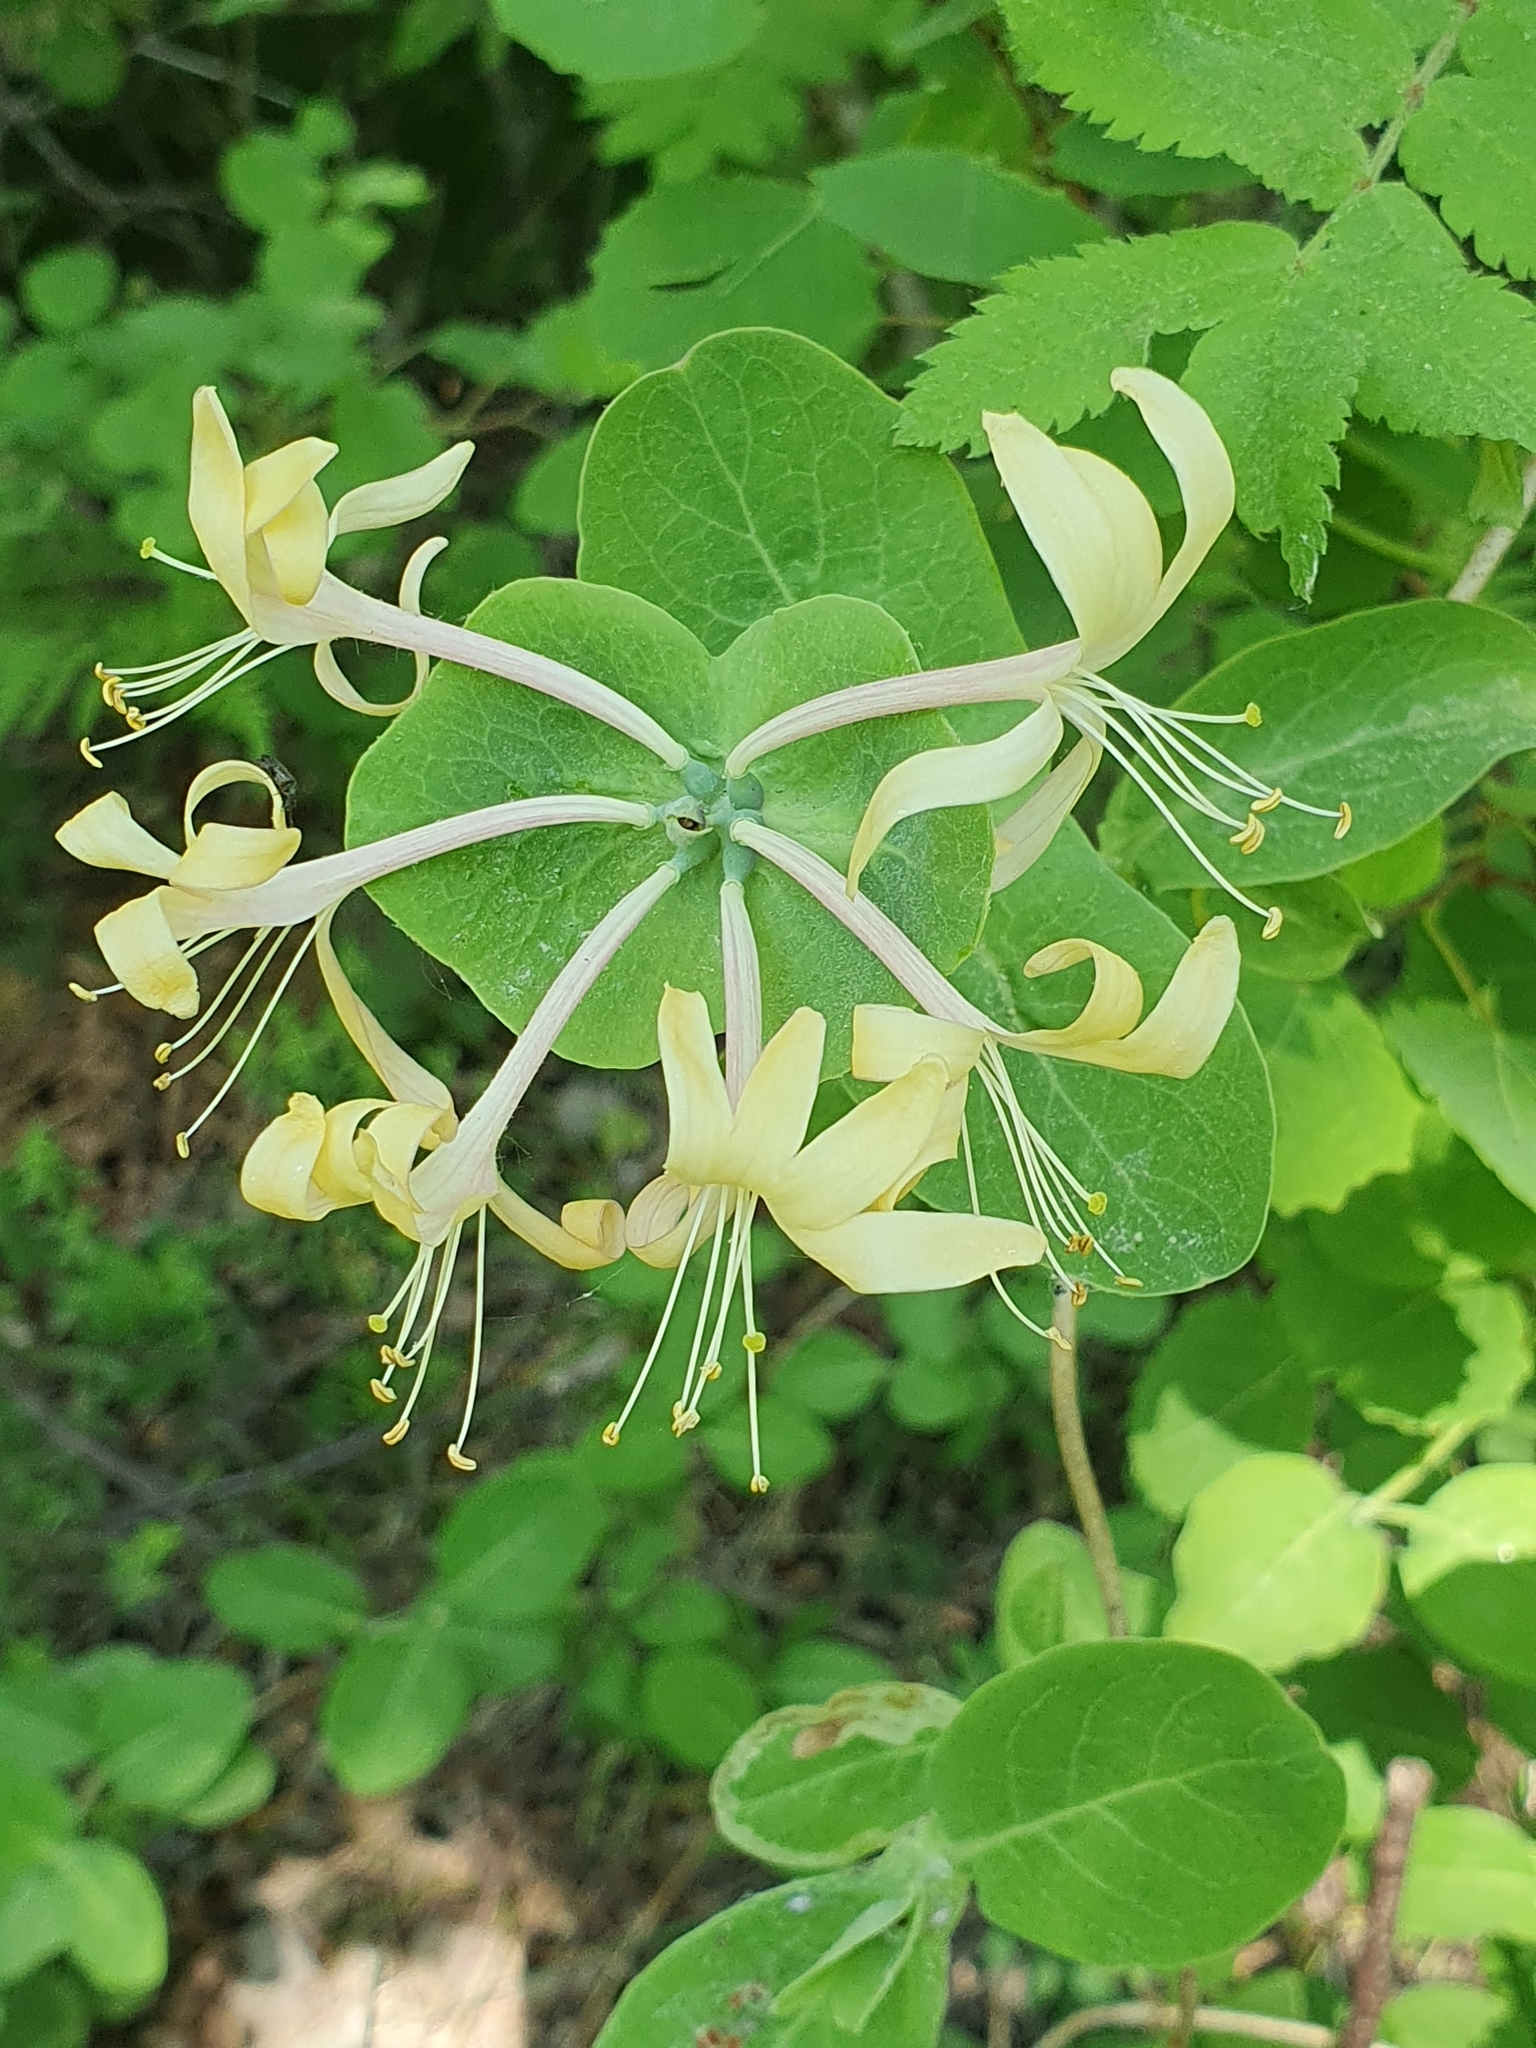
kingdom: Plantae
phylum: Tracheophyta
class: Magnoliopsida
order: Dipsacales
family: Caprifoliaceae
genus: Lonicera
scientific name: Lonicera caprifolium
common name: Perfoliate honeysuckle
